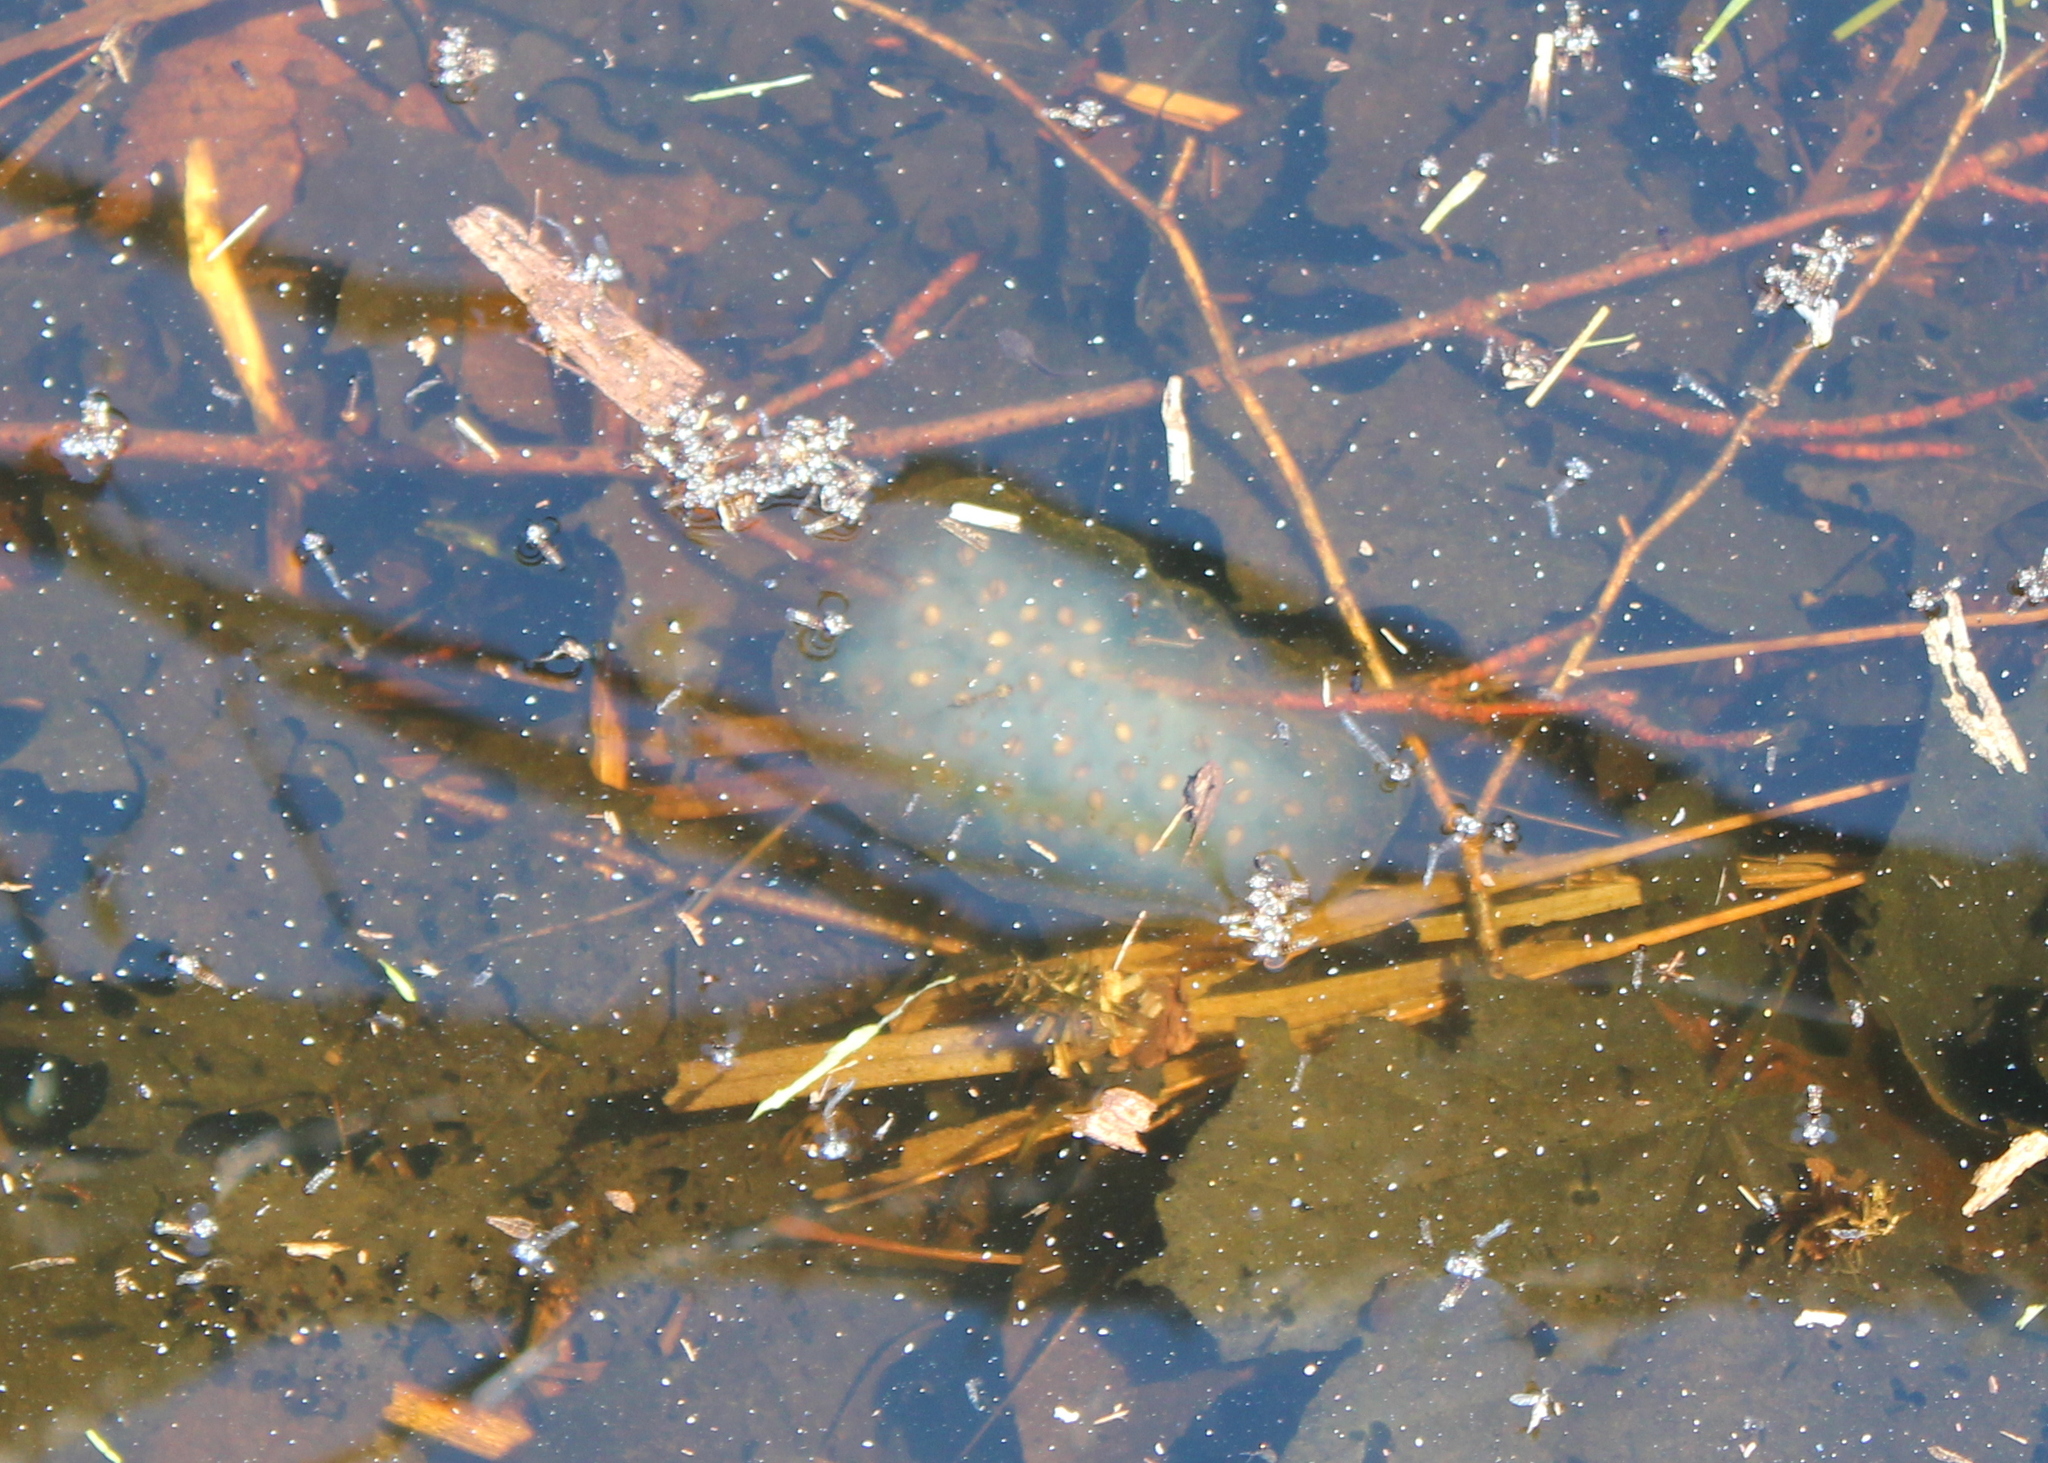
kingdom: Animalia
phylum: Chordata
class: Amphibia
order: Caudata
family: Ambystomatidae
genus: Ambystoma
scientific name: Ambystoma maculatum
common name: Spotted salamander
